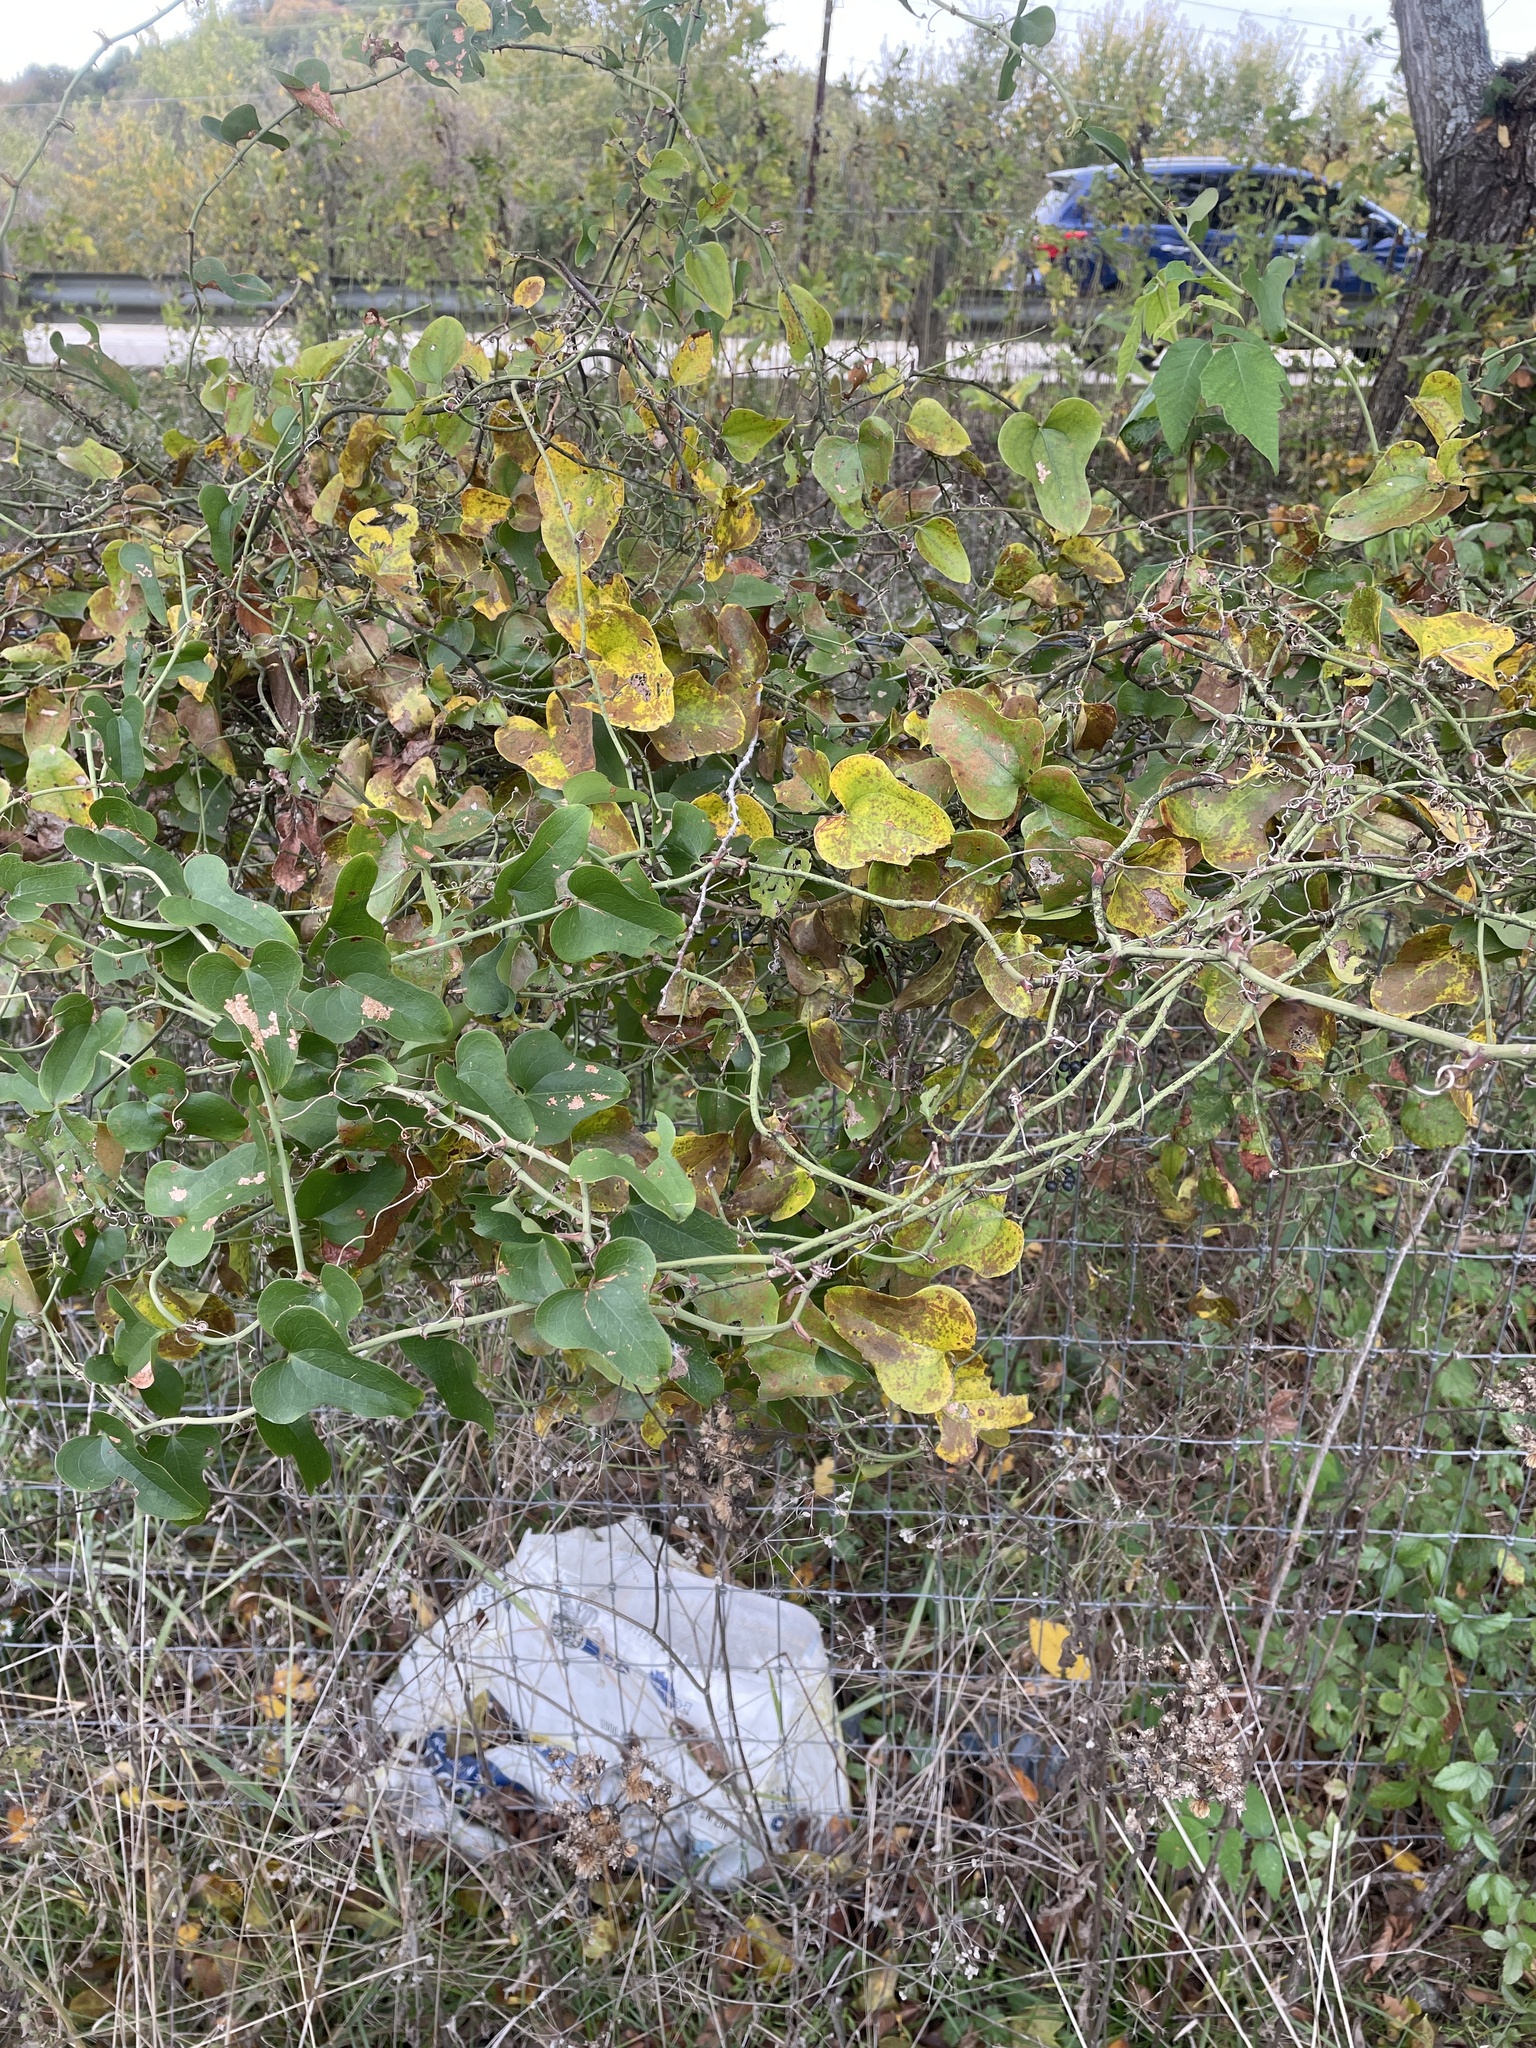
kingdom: Plantae
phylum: Tracheophyta
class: Liliopsida
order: Liliales
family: Smilacaceae
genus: Smilax
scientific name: Smilax bona-nox
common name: Catbrier
